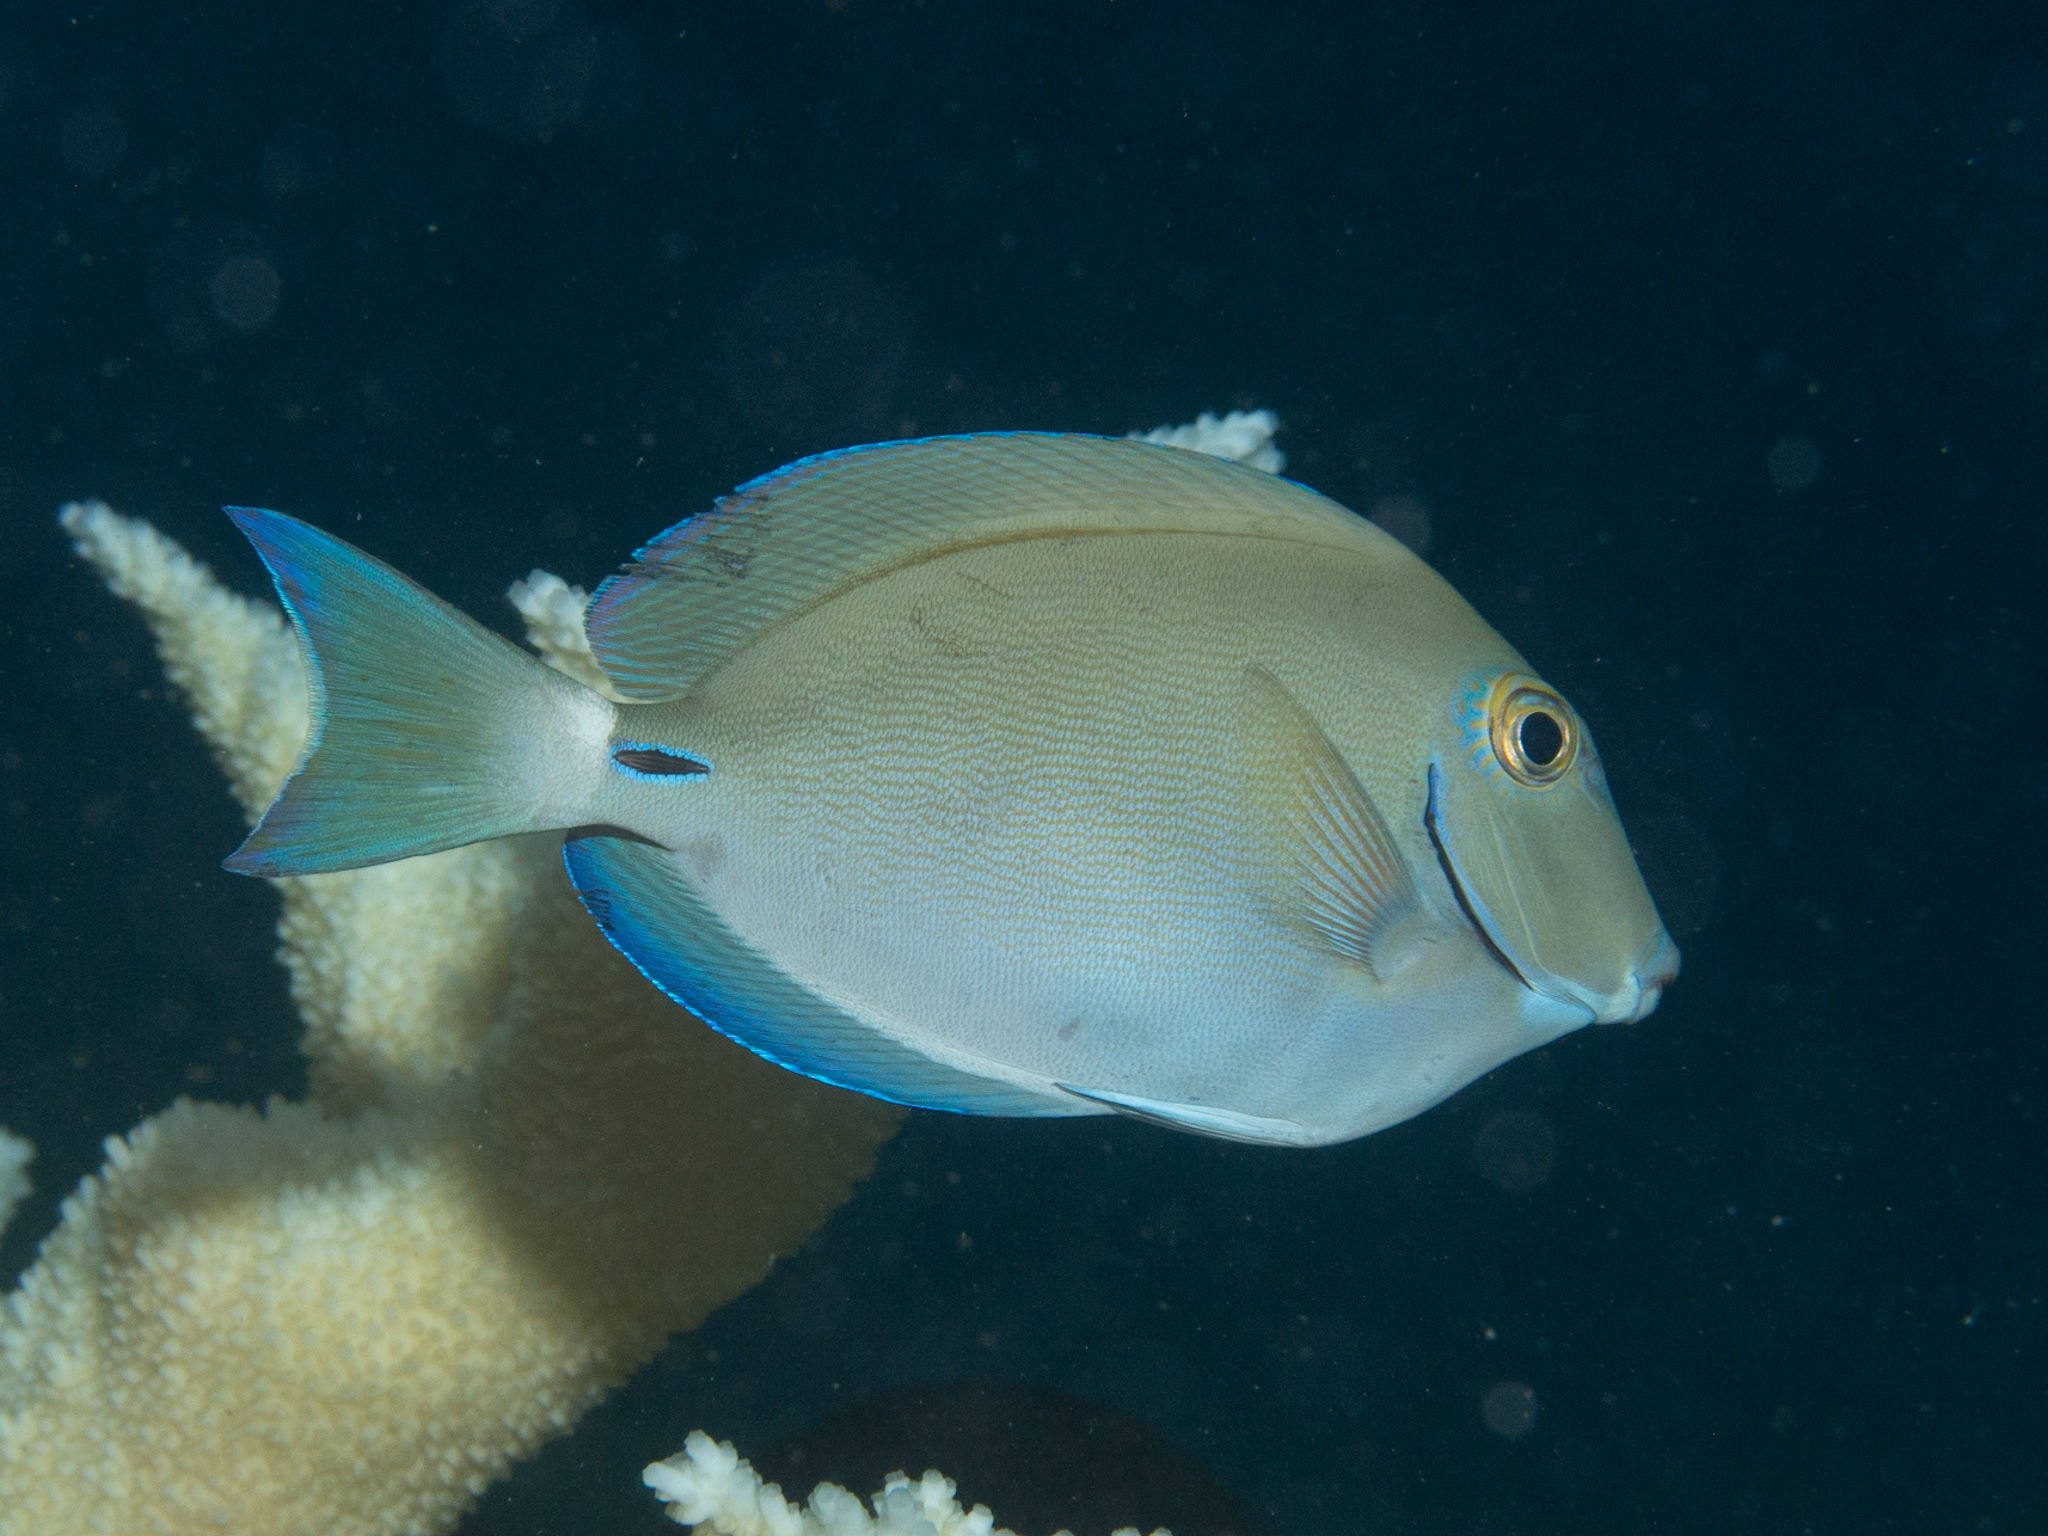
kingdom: Animalia
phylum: Chordata
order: Perciformes
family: Acanthuridae
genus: Acanthurus
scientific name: Acanthurus bahianus
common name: Ocean surgeon
